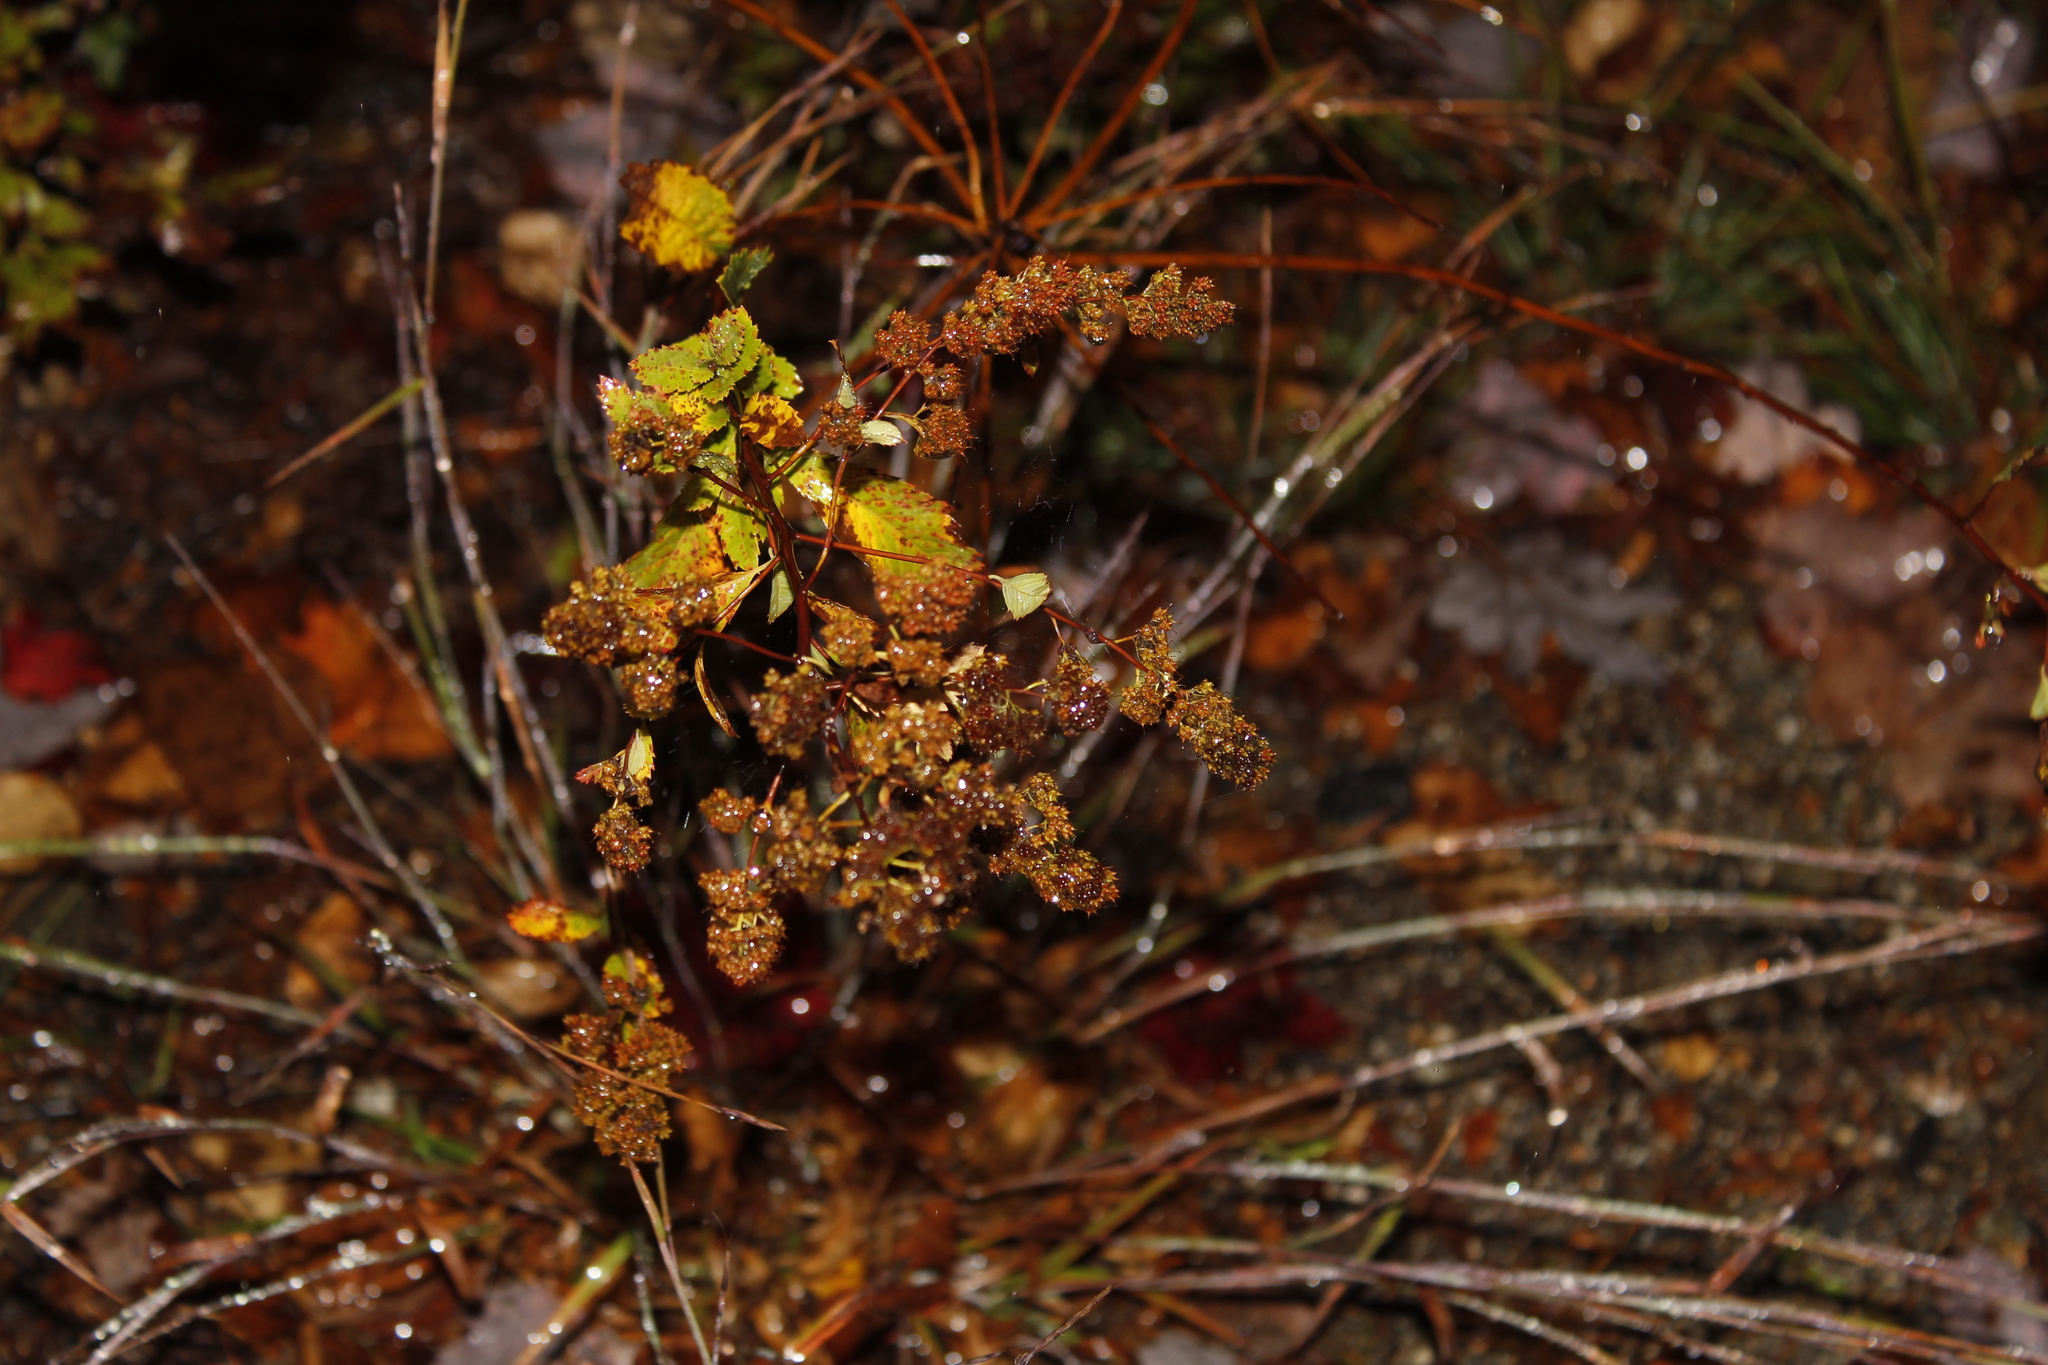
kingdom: Plantae
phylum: Tracheophyta
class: Magnoliopsida
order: Rosales
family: Rosaceae
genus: Spiraea
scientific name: Spiraea alba
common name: Pale bridewort
